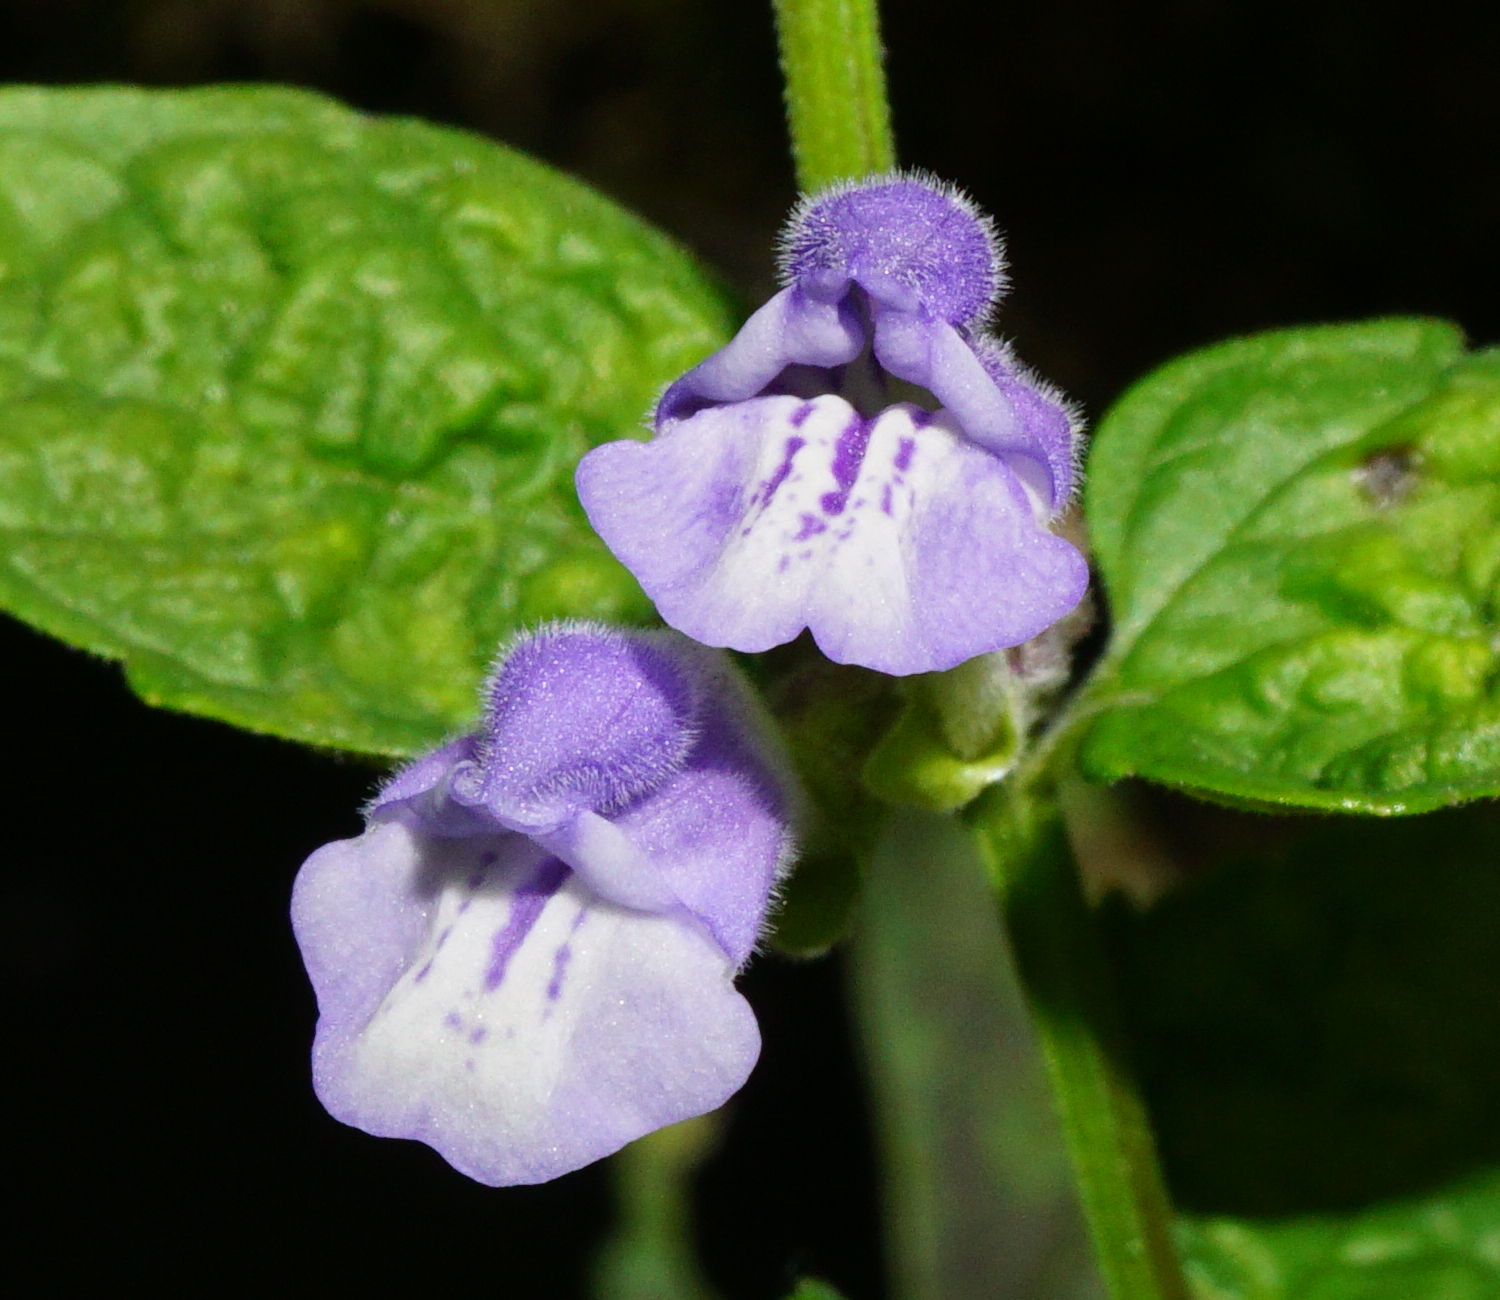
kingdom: Plantae
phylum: Tracheophyta
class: Magnoliopsida
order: Lamiales
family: Lamiaceae
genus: Scutellaria
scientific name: Scutellaria galericulata
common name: Skullcap
